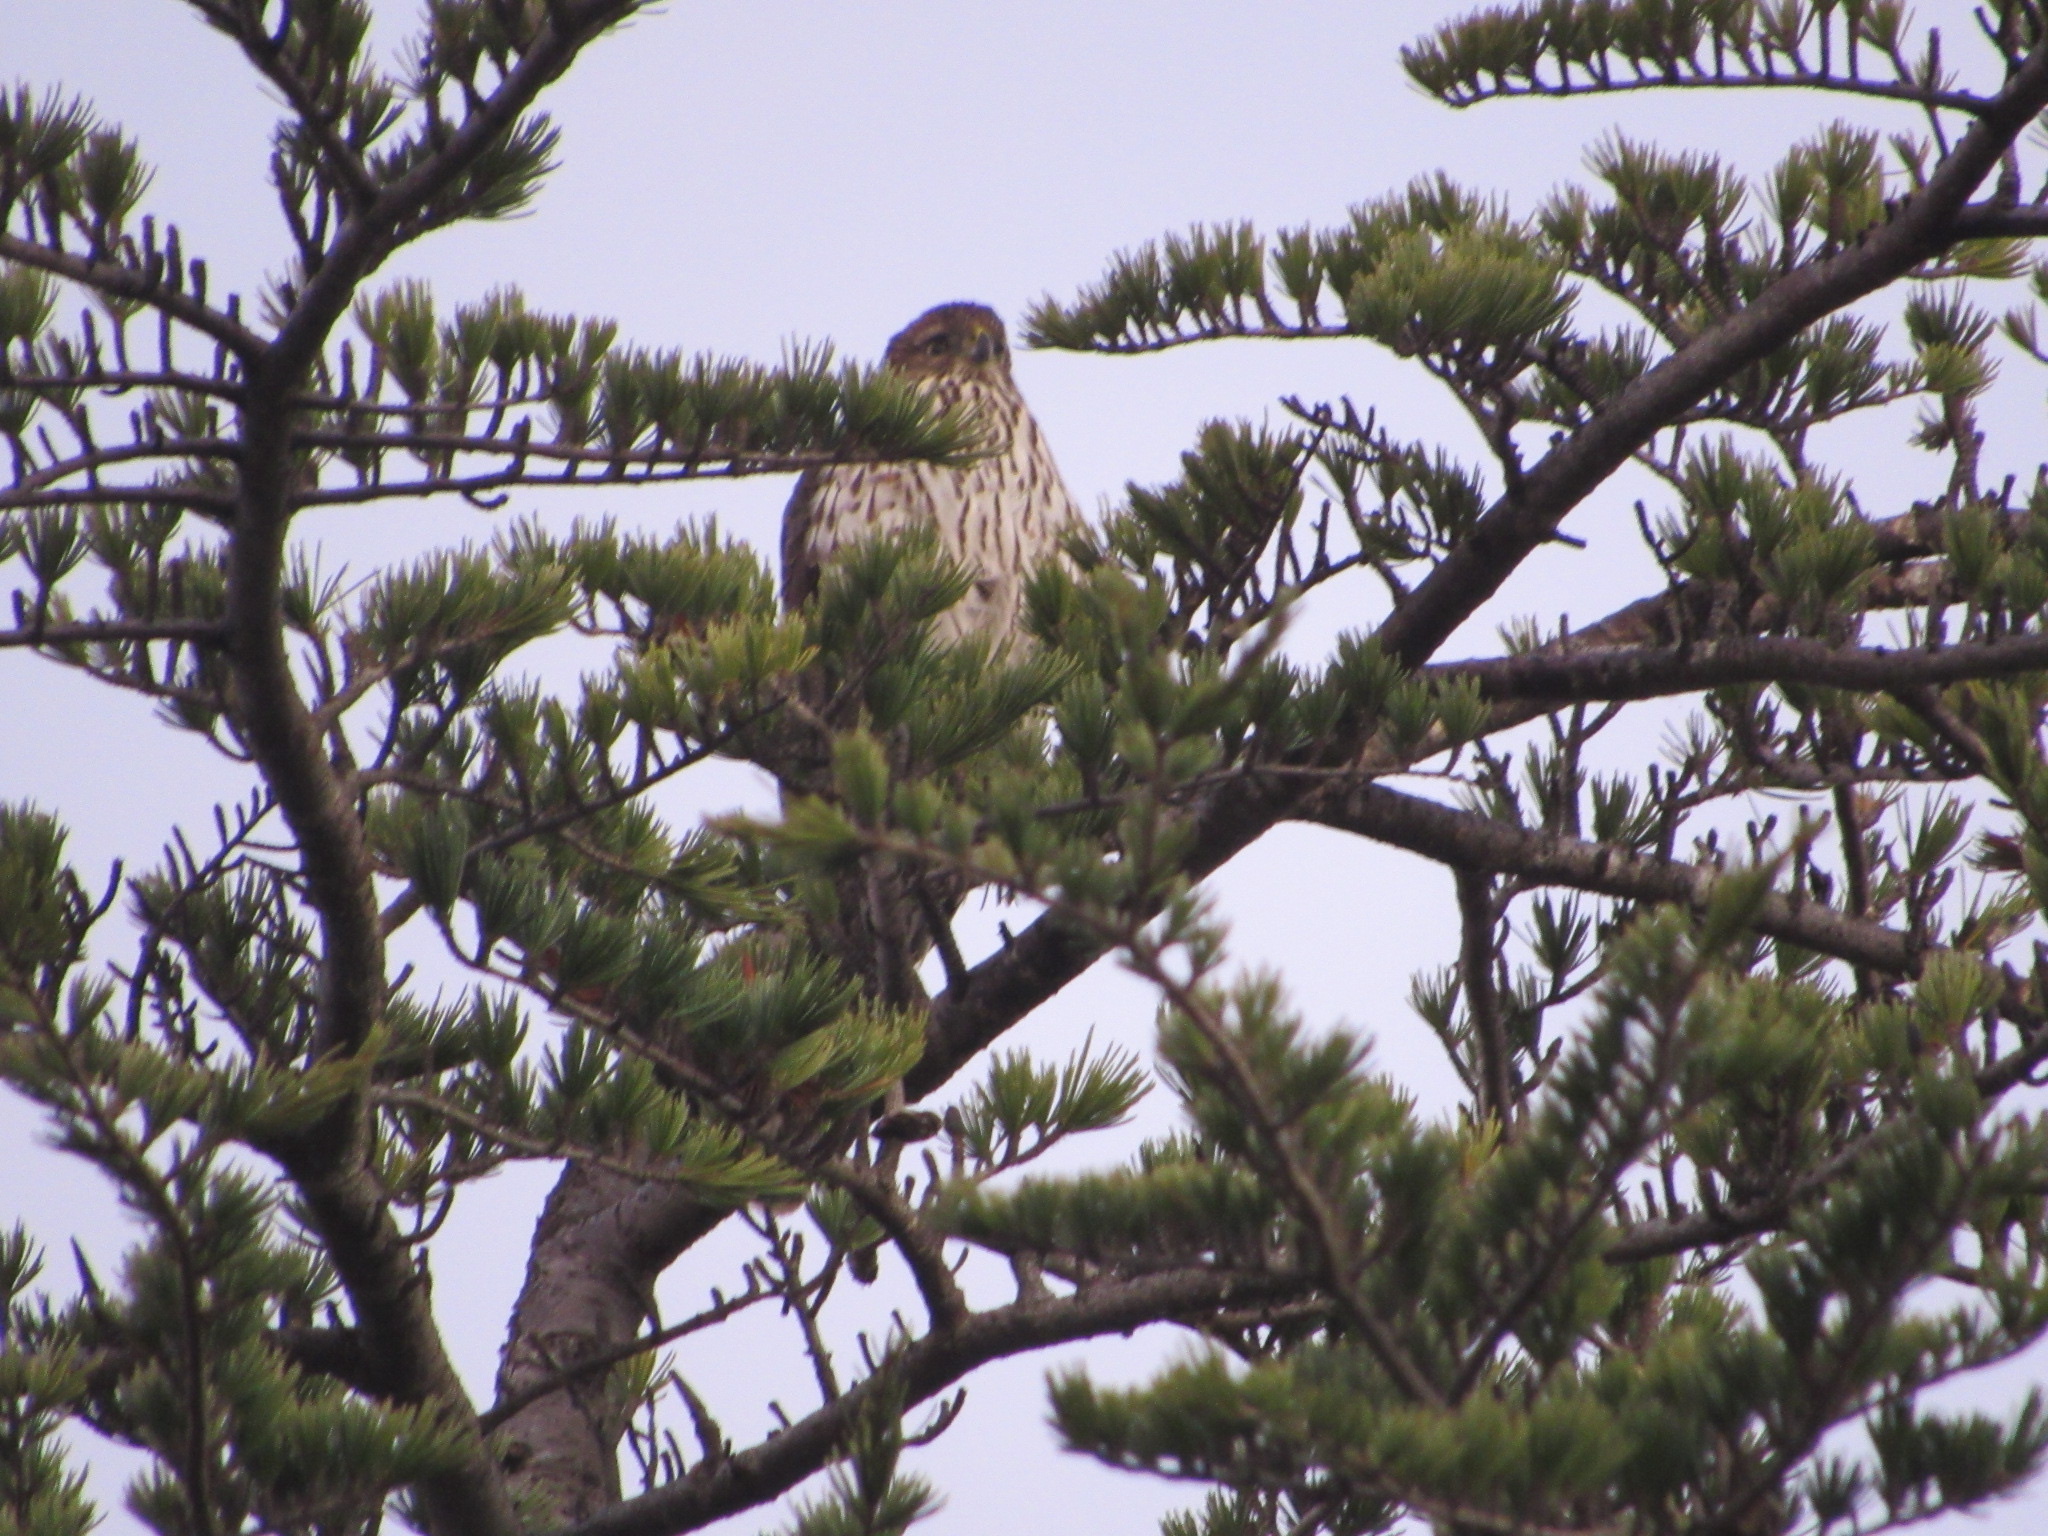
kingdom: Animalia
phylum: Chordata
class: Aves
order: Accipitriformes
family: Accipitridae
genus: Accipiter
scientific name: Accipiter cooperii
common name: Cooper's hawk
